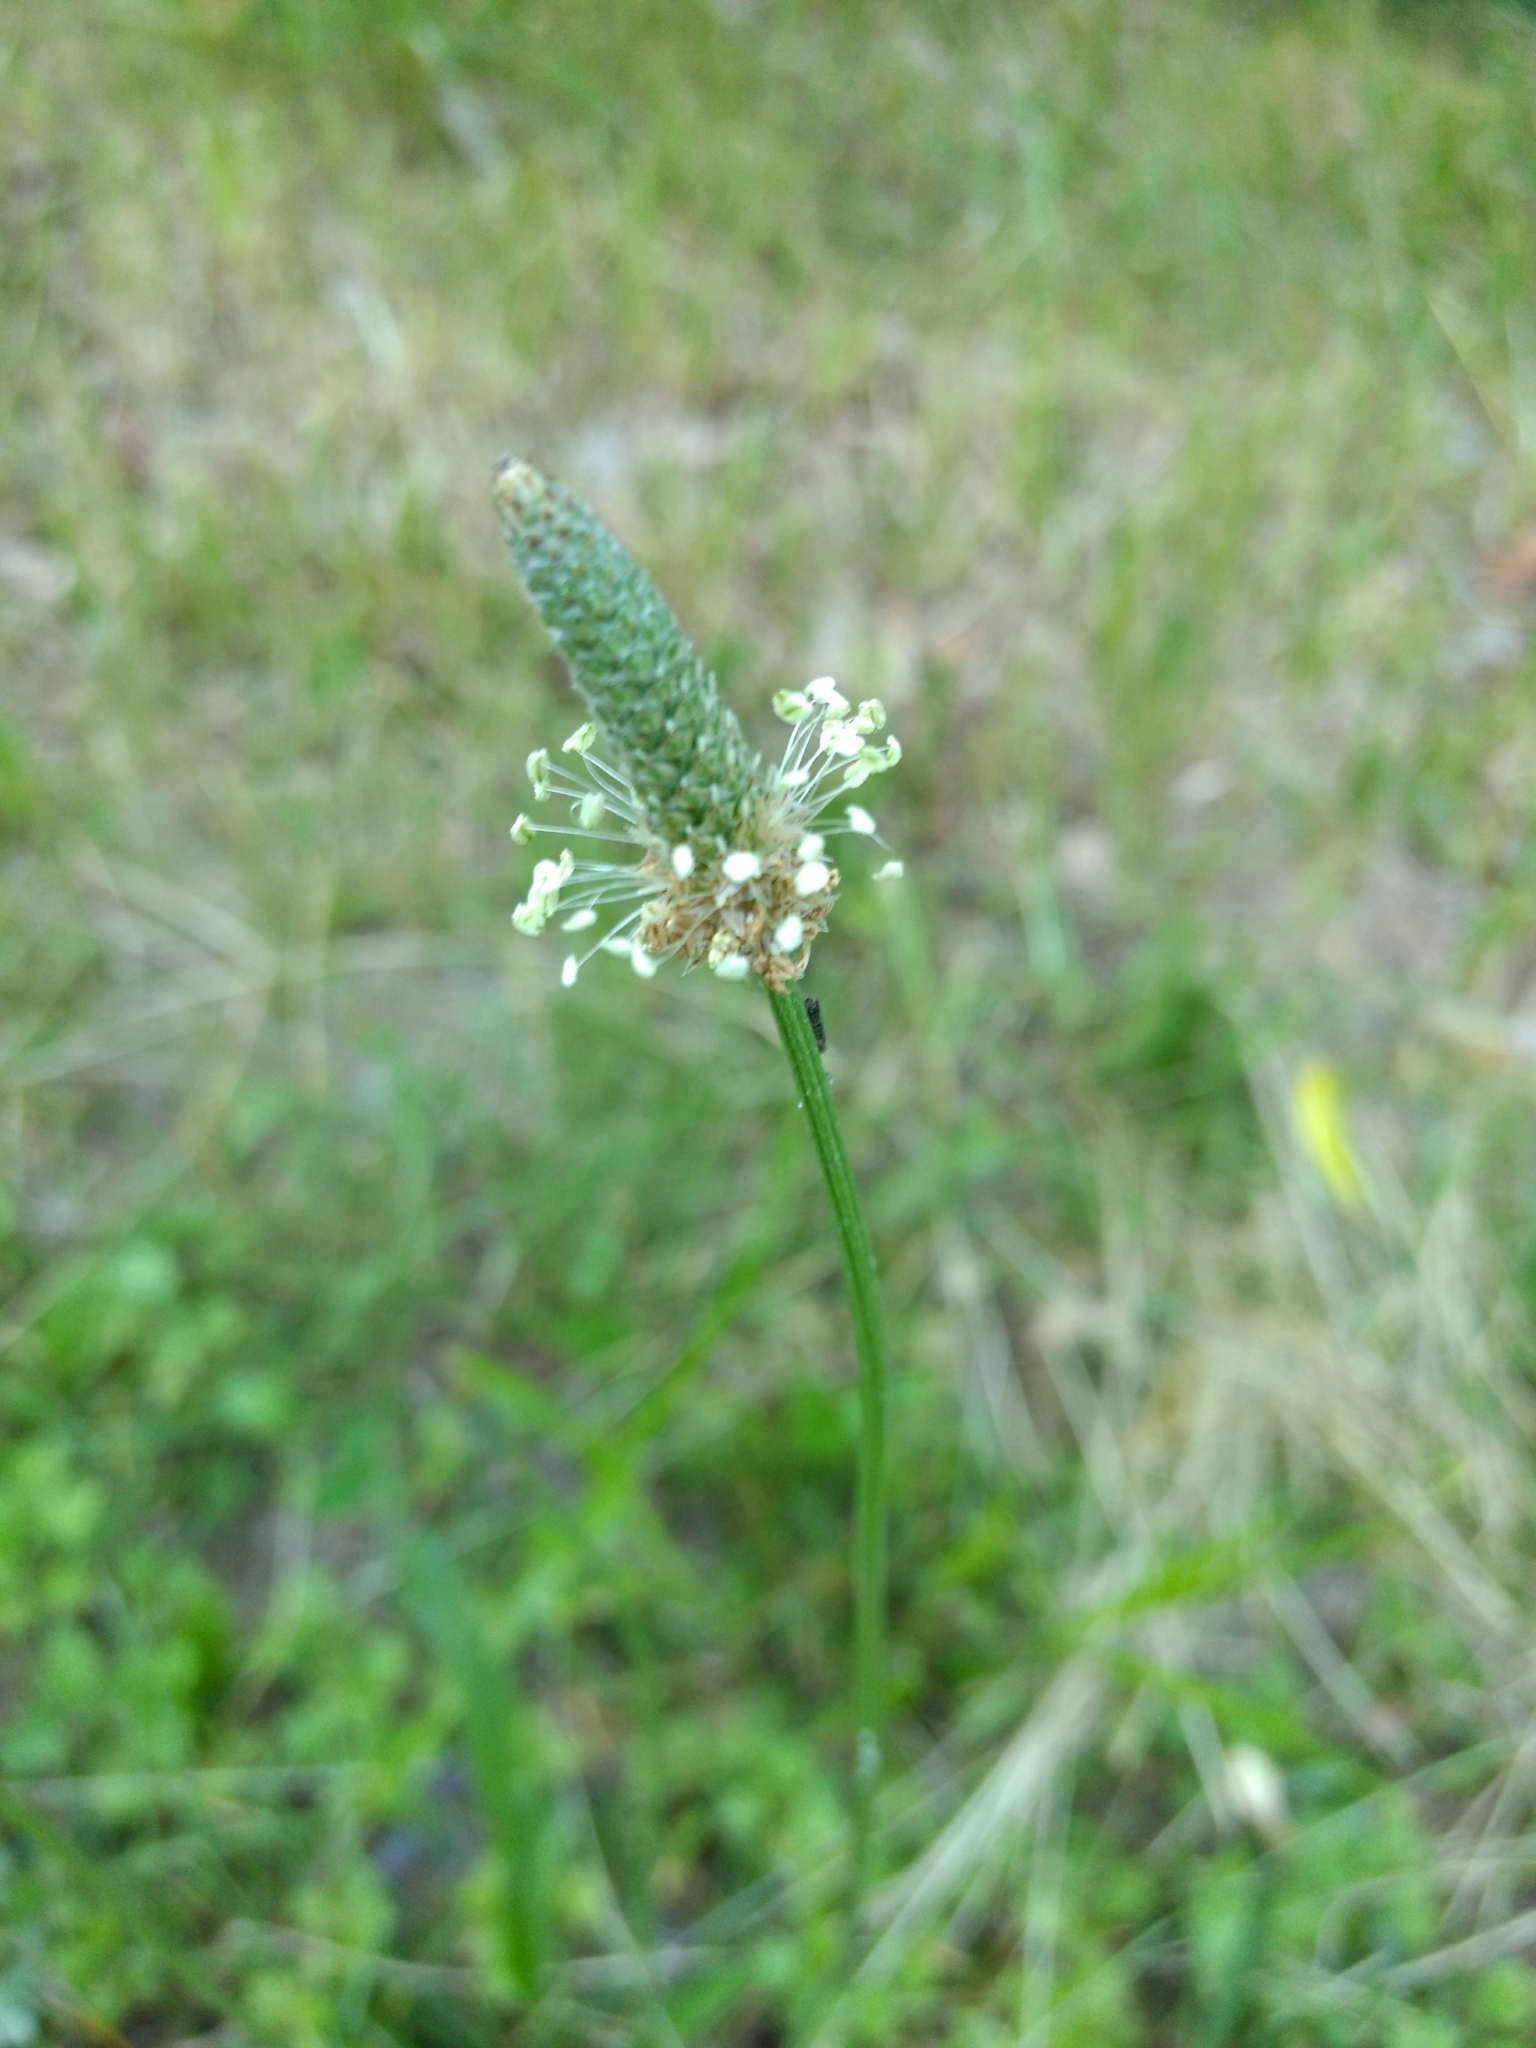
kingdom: Plantae
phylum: Tracheophyta
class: Magnoliopsida
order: Lamiales
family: Plantaginaceae
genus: Plantago
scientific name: Plantago lanceolata
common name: Ribwort plantain
